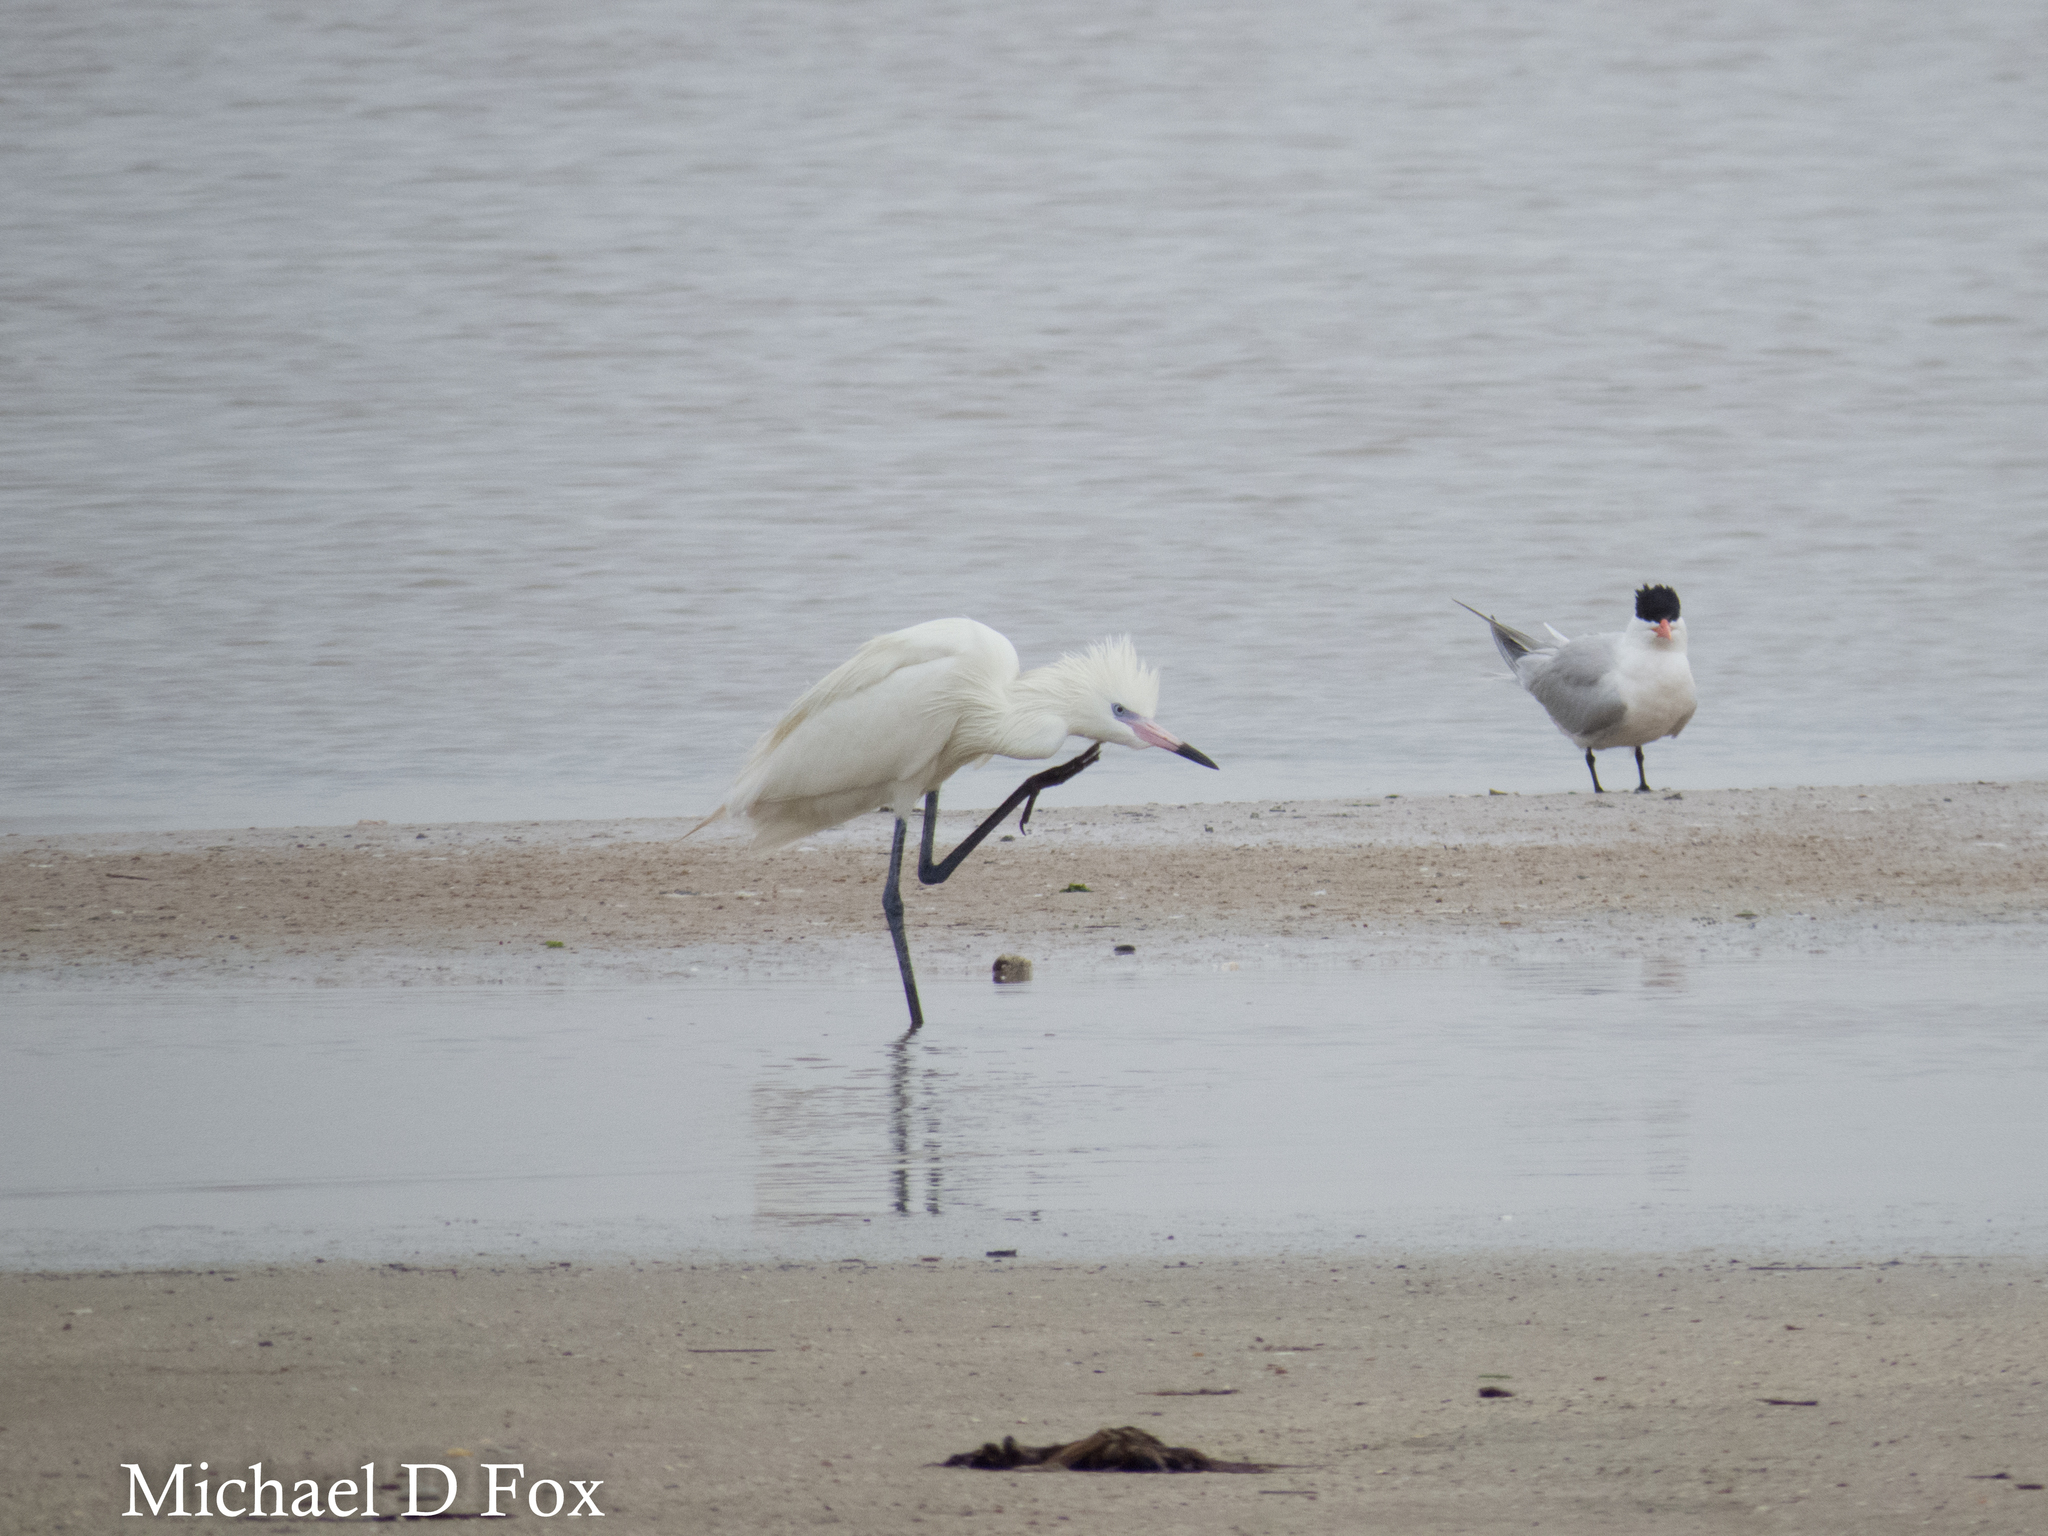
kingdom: Animalia
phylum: Chordata
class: Aves
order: Pelecaniformes
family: Ardeidae
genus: Egretta
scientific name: Egretta rufescens
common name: Reddish egret
